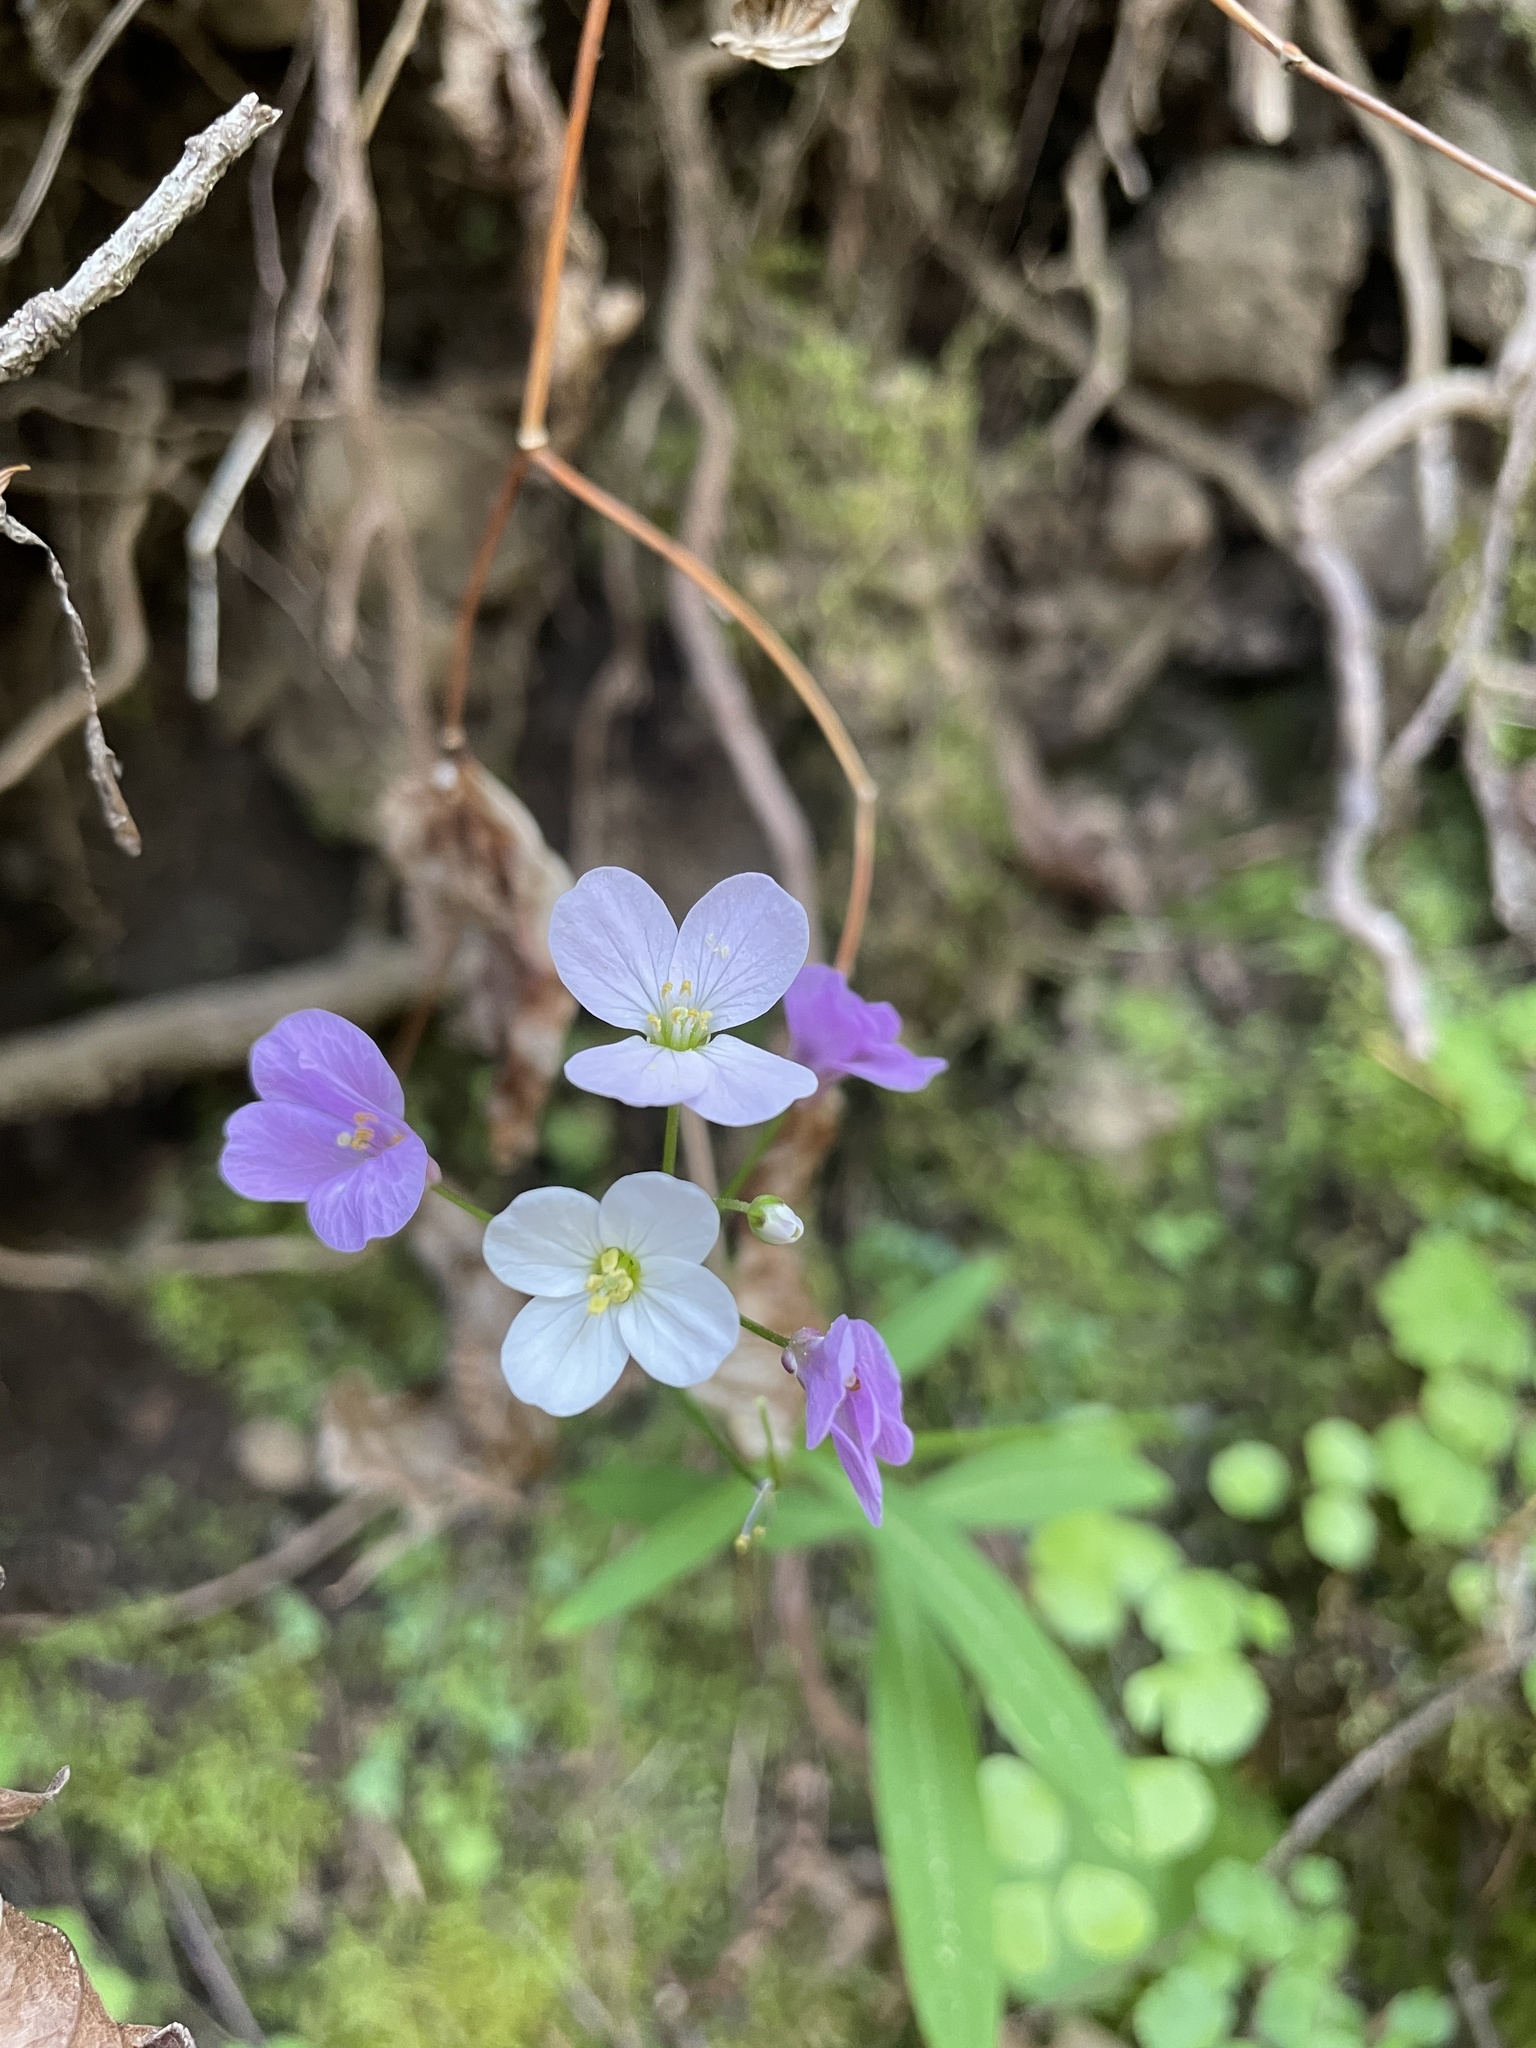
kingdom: Plantae
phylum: Tracheophyta
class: Magnoliopsida
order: Brassicales
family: Brassicaceae
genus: Cardamine
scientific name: Cardamine californica
